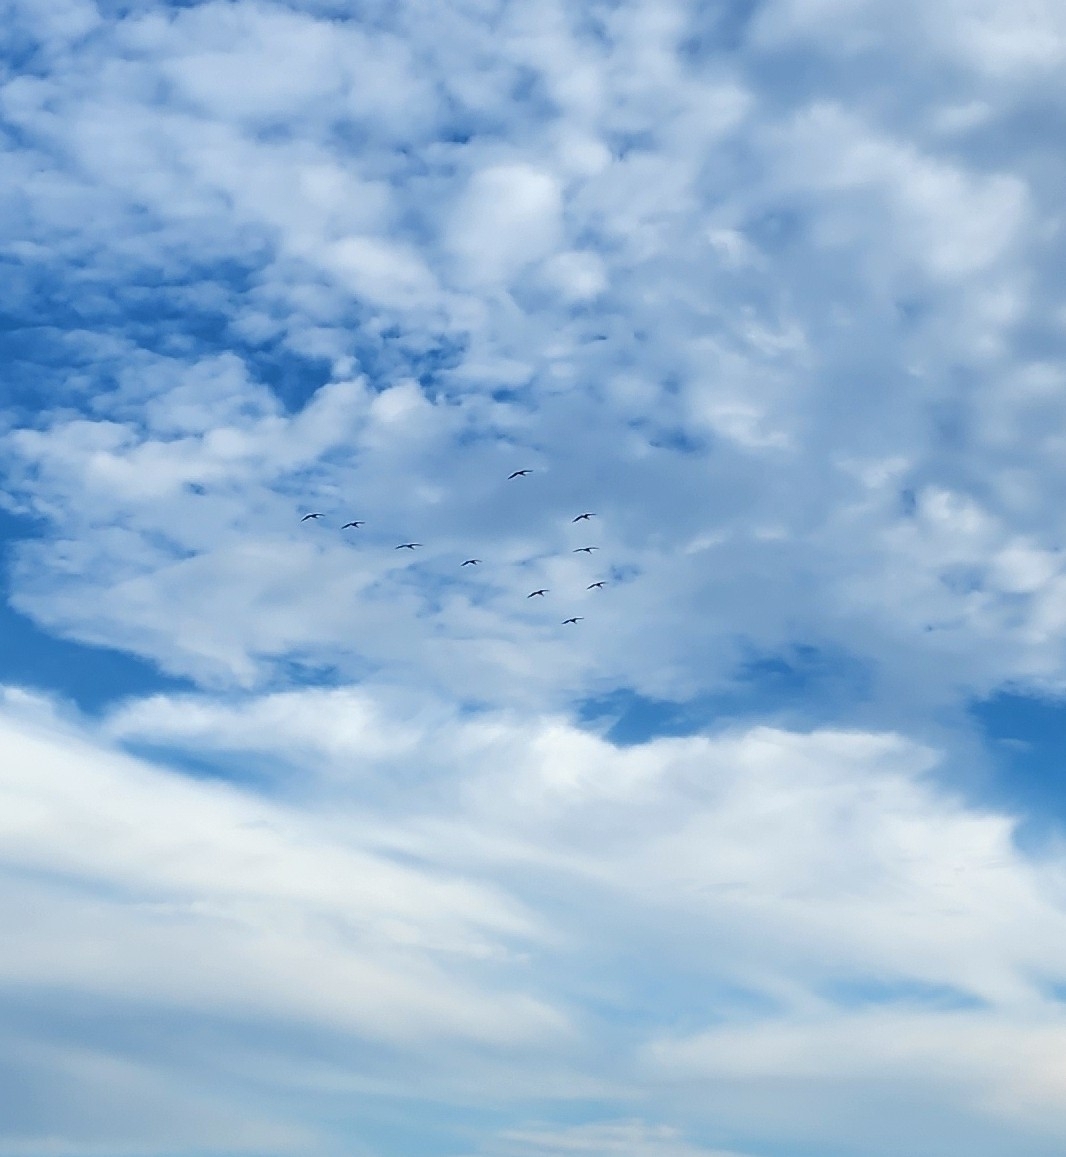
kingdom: Animalia
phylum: Chordata
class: Aves
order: Pelecaniformes
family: Pelecanidae
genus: Pelecanus
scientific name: Pelecanus occidentalis
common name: Brown pelican
